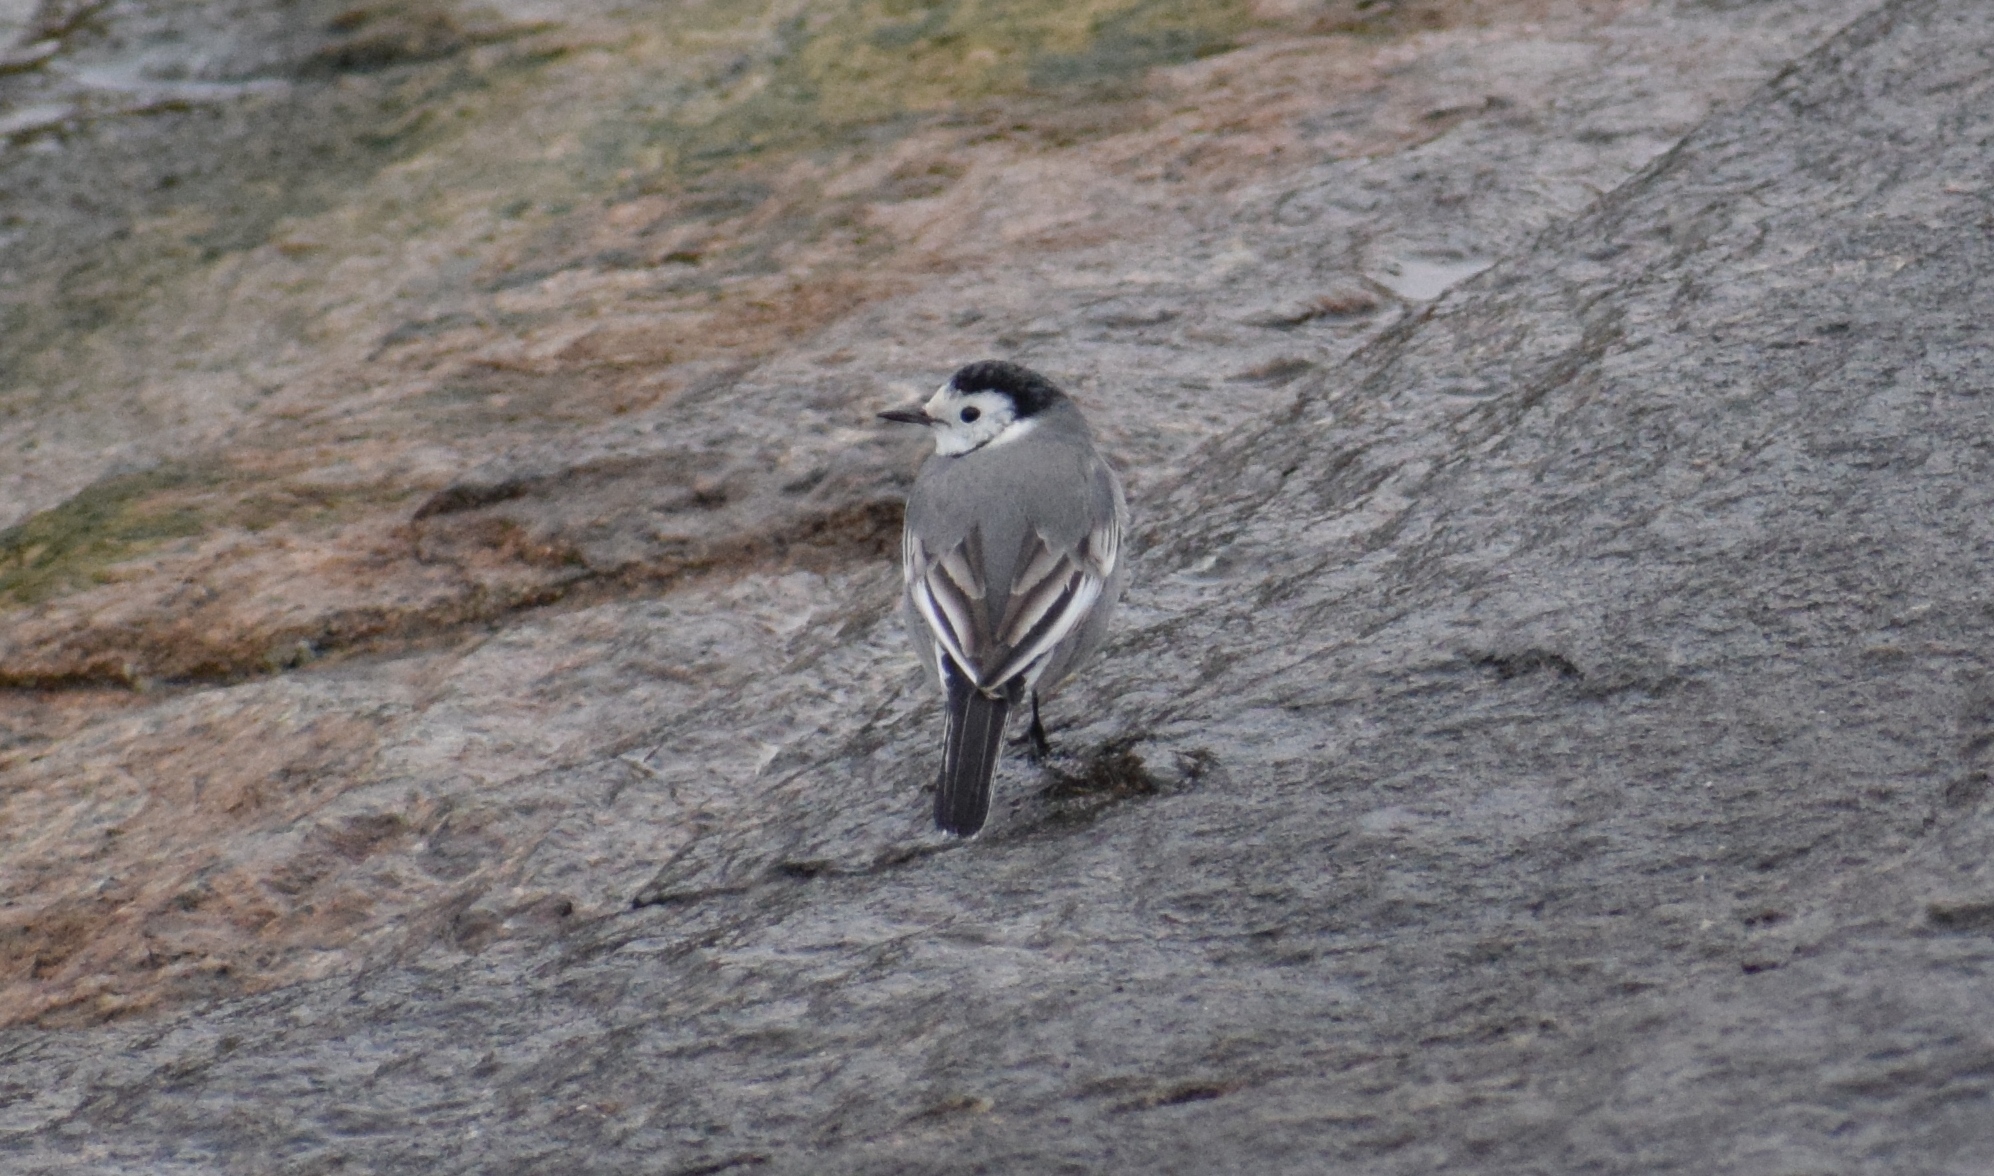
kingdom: Animalia
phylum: Chordata
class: Aves
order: Passeriformes
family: Motacillidae
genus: Motacilla
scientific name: Motacilla alba
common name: White wagtail
